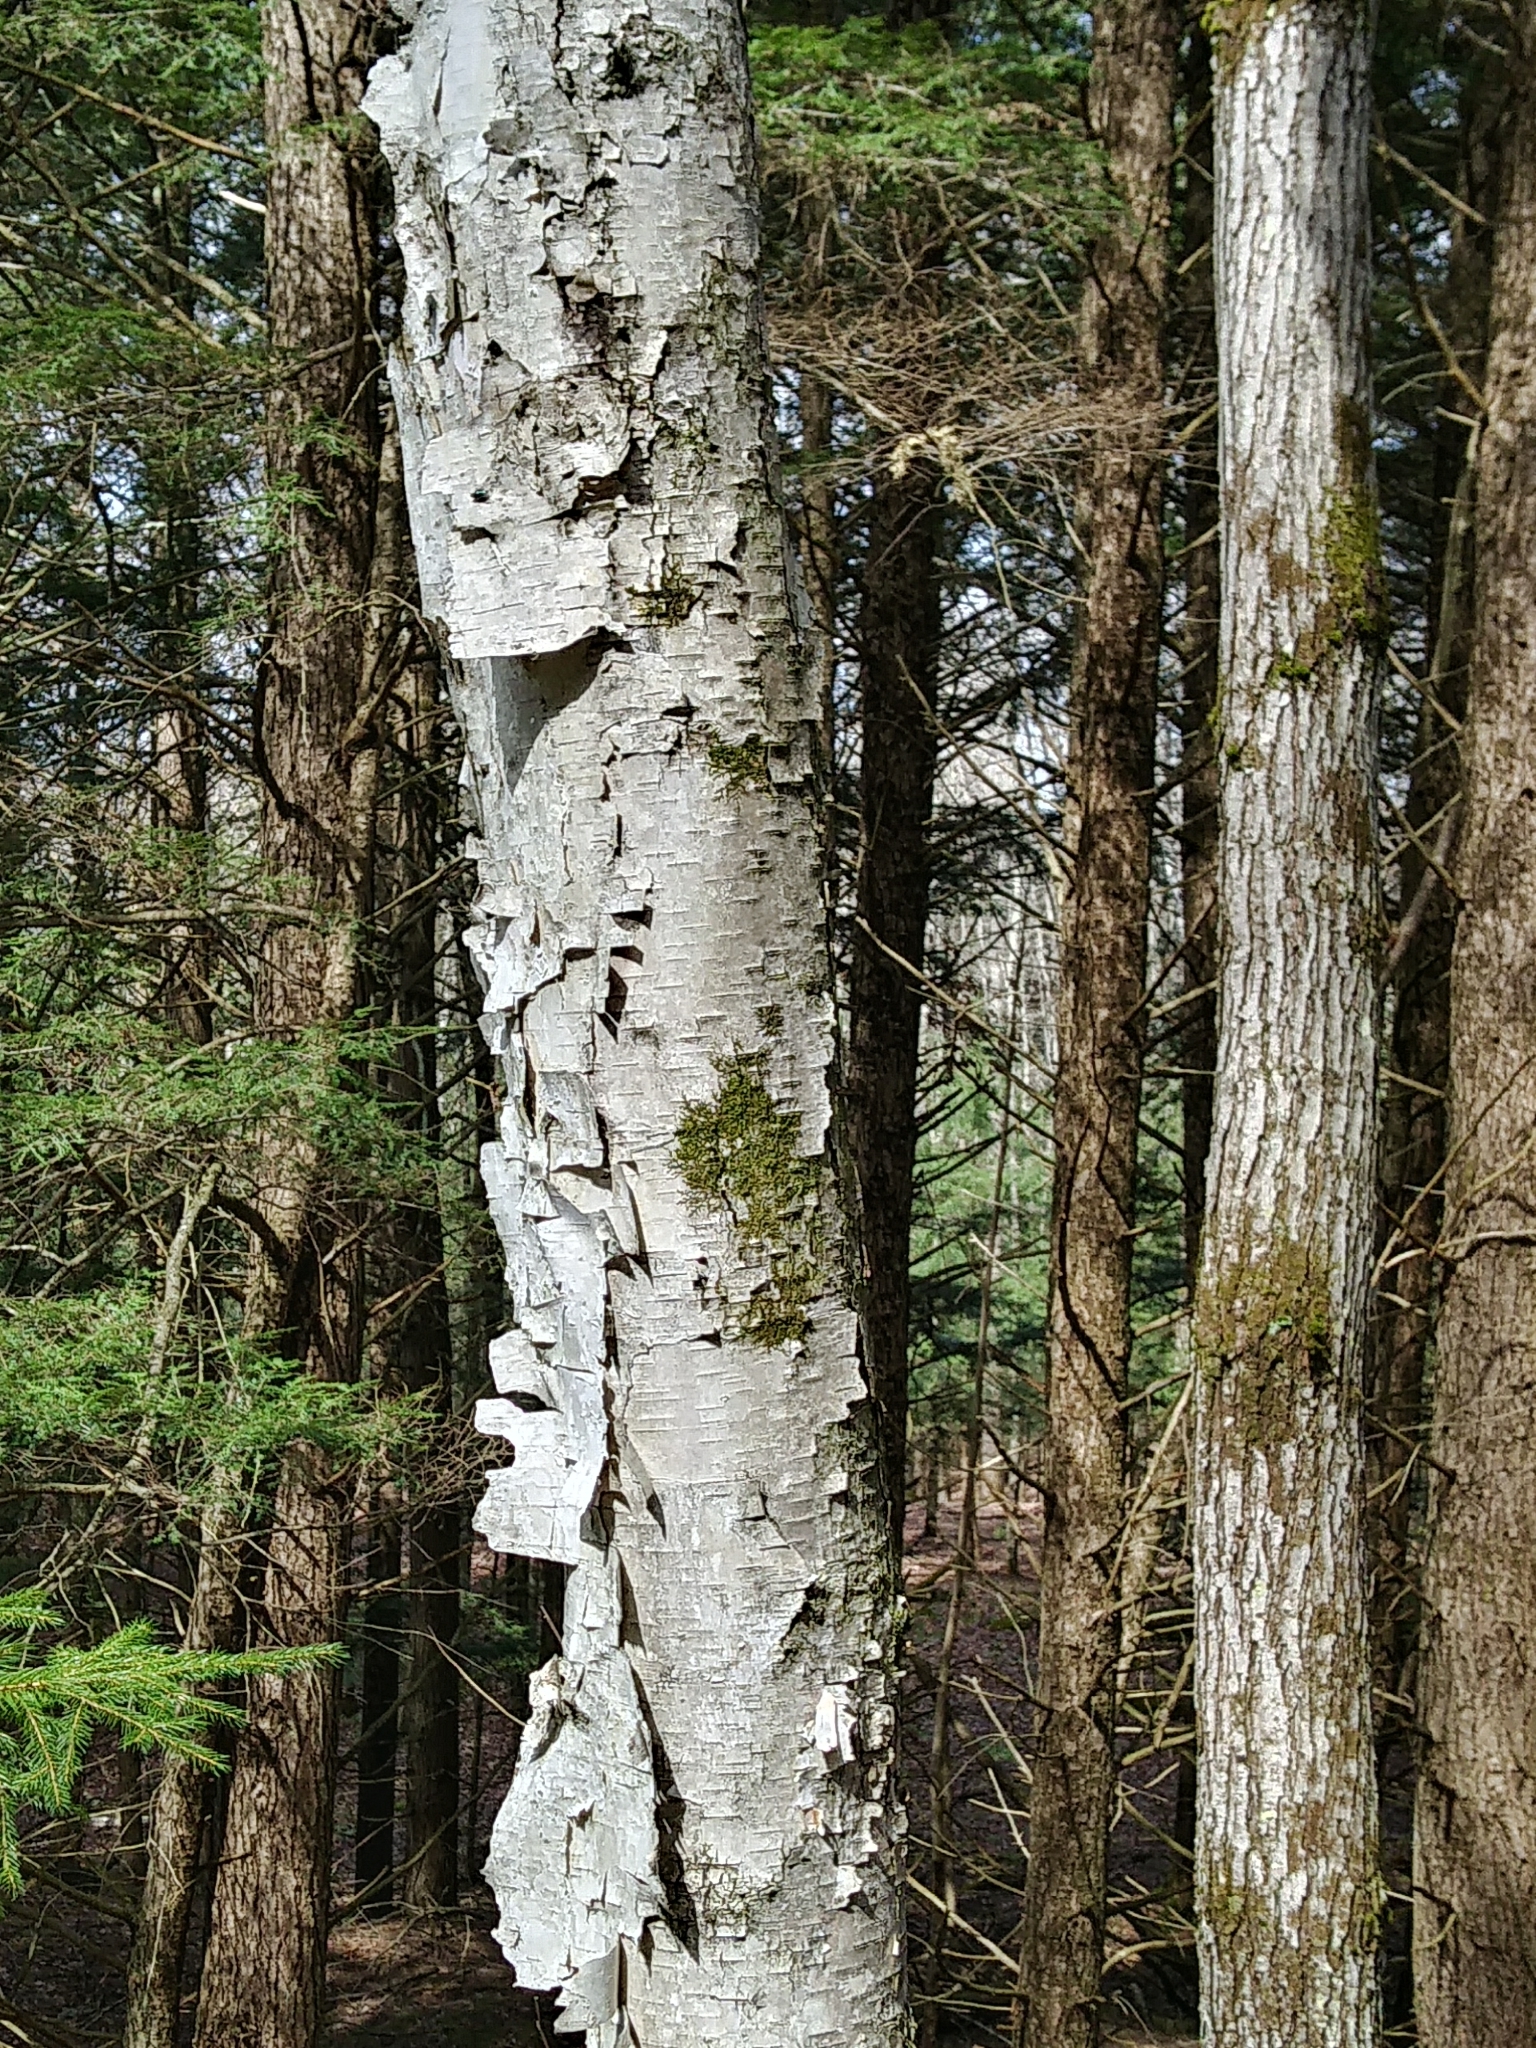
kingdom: Plantae
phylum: Tracheophyta
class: Magnoliopsida
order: Fagales
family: Betulaceae
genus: Betula
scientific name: Betula papyrifera
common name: Paper birch
